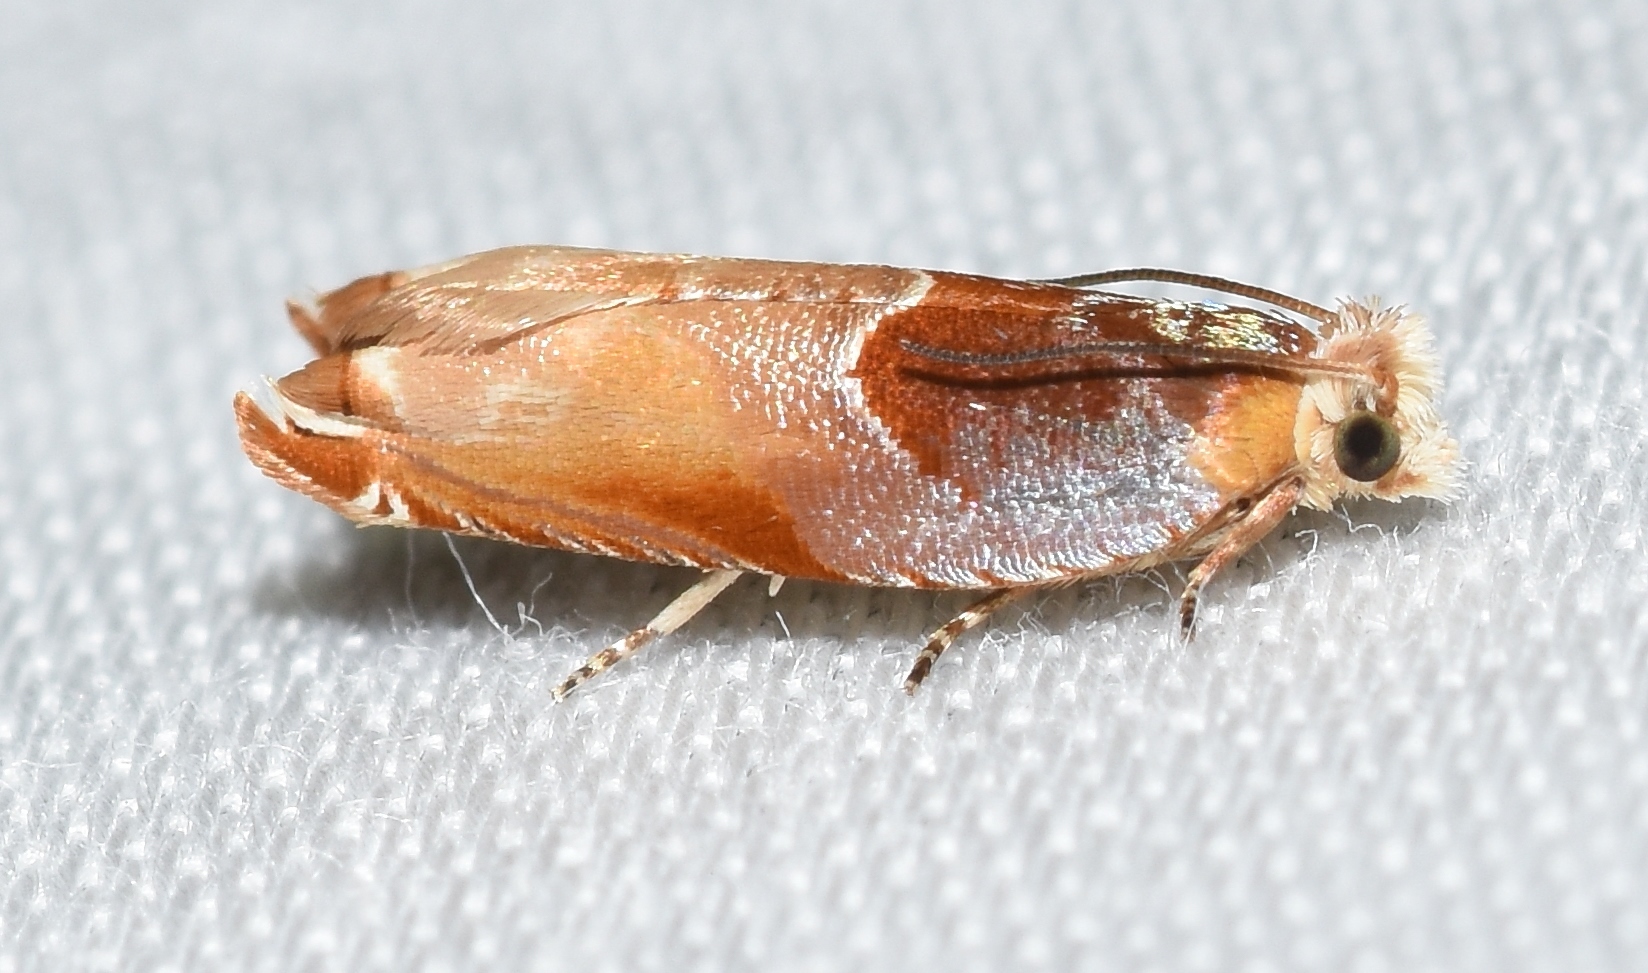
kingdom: Animalia
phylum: Arthropoda
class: Insecta
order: Lepidoptera
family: Tortricidae
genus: Ancylis
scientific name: Ancylis divisana
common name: Two-toned ancylis moth
